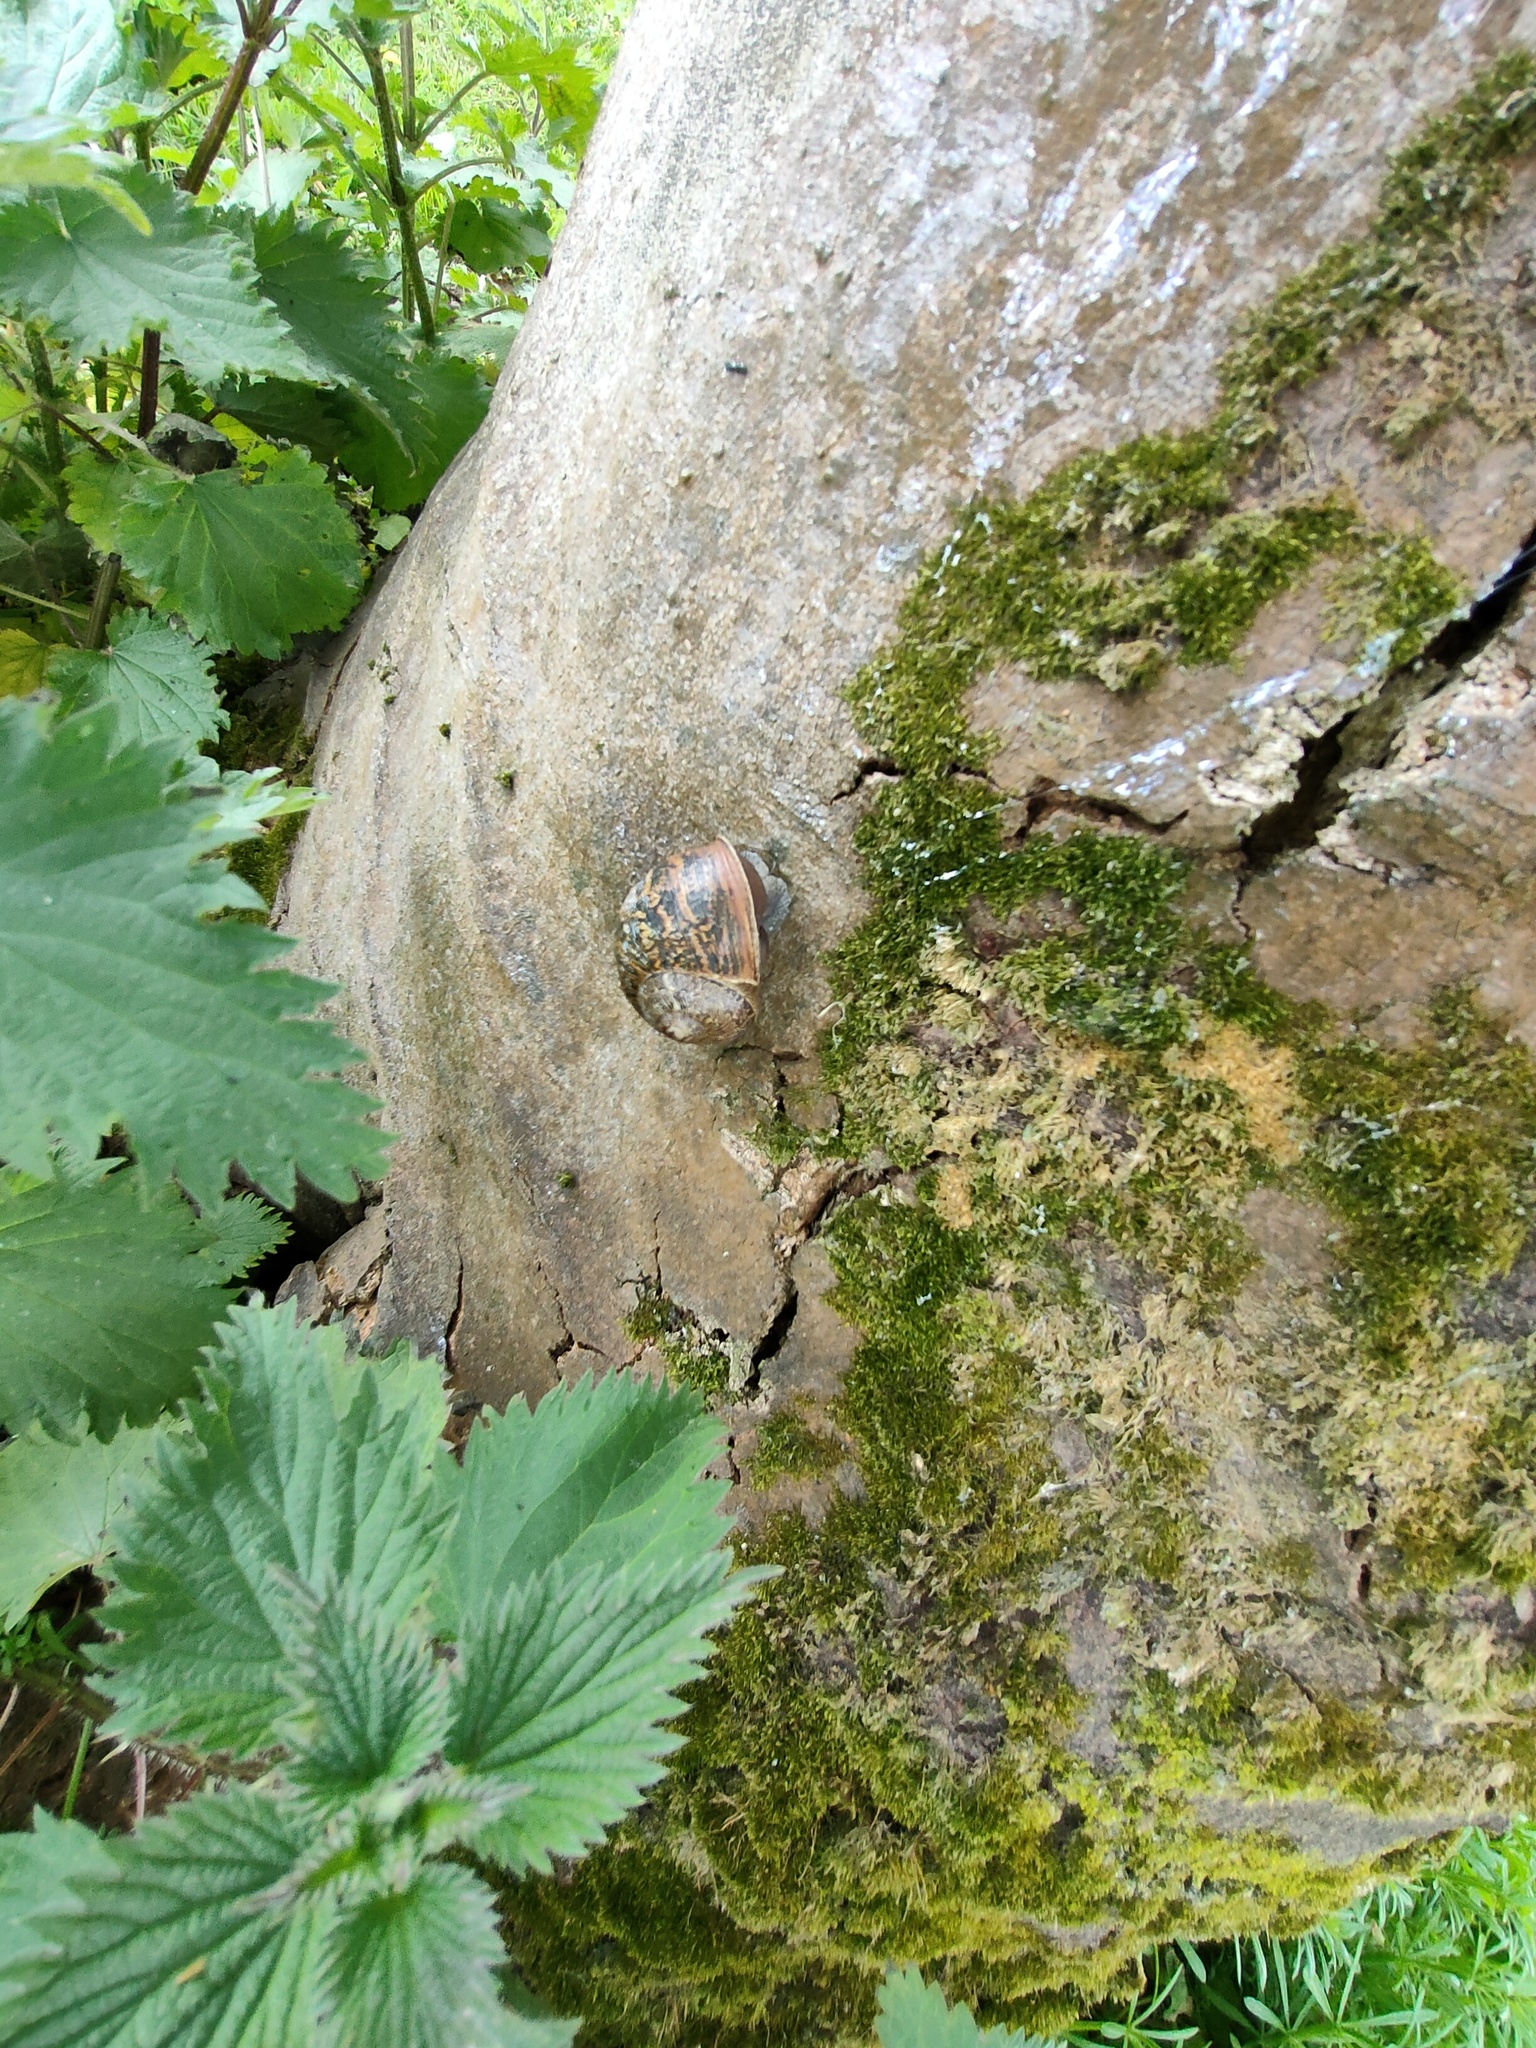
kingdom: Animalia
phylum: Mollusca
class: Gastropoda
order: Stylommatophora
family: Helicidae
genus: Cornu
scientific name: Cornu aspersum
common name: Brown garden snail
